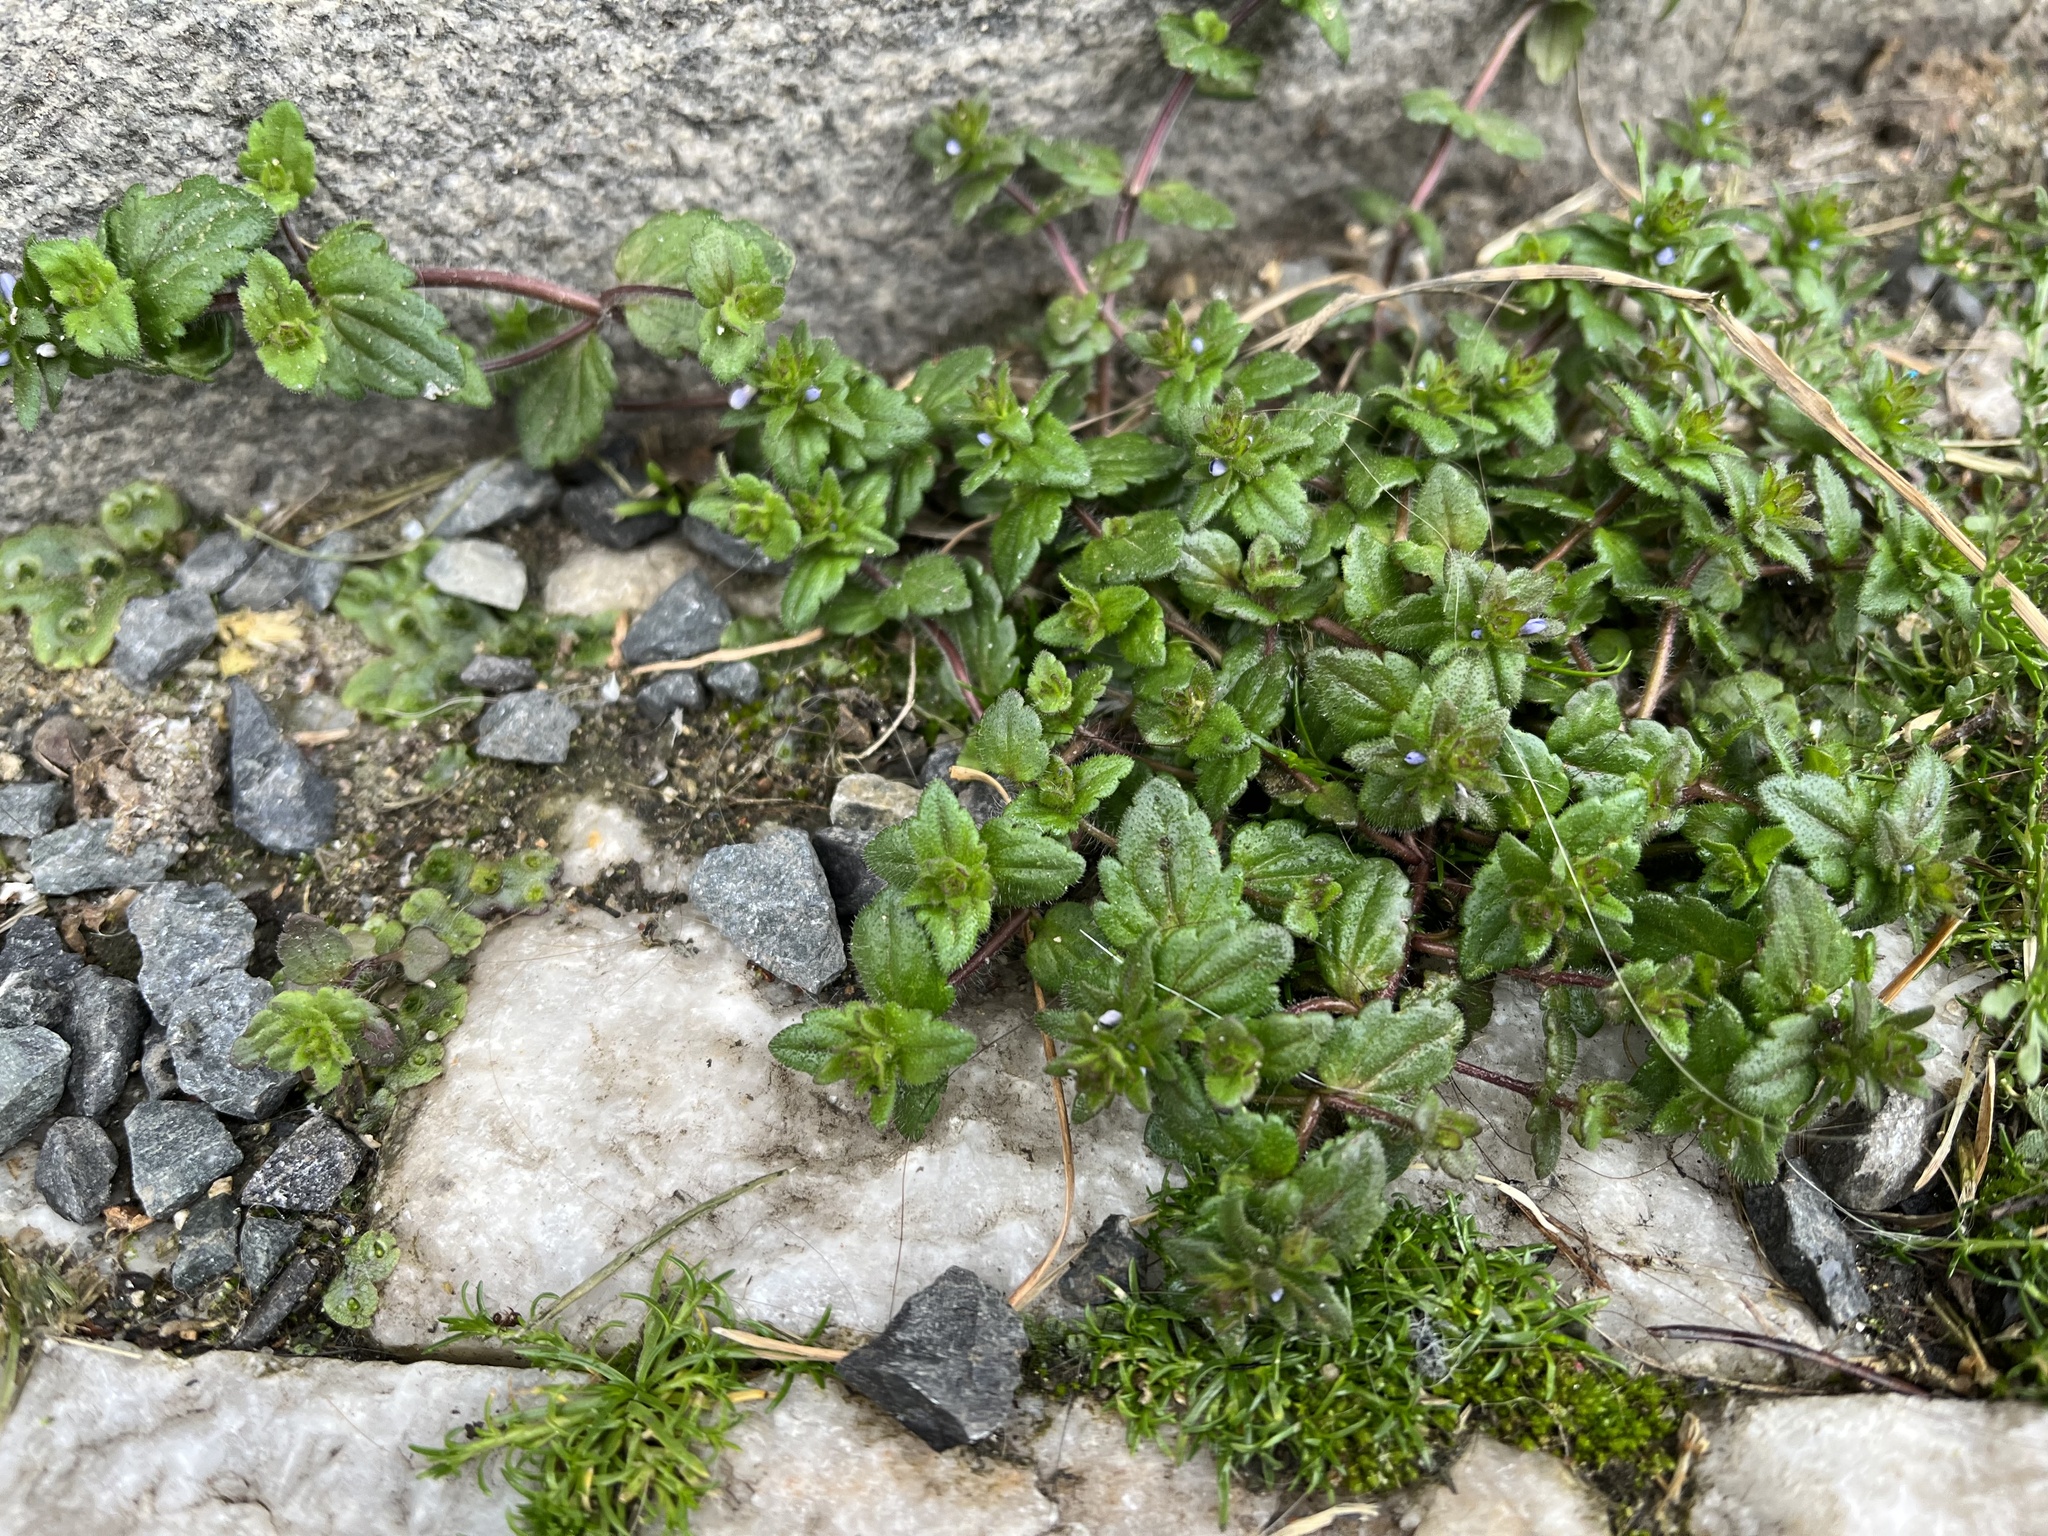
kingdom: Plantae
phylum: Tracheophyta
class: Magnoliopsida
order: Lamiales
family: Plantaginaceae
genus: Veronica
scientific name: Veronica arvensis
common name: Corn speedwell
